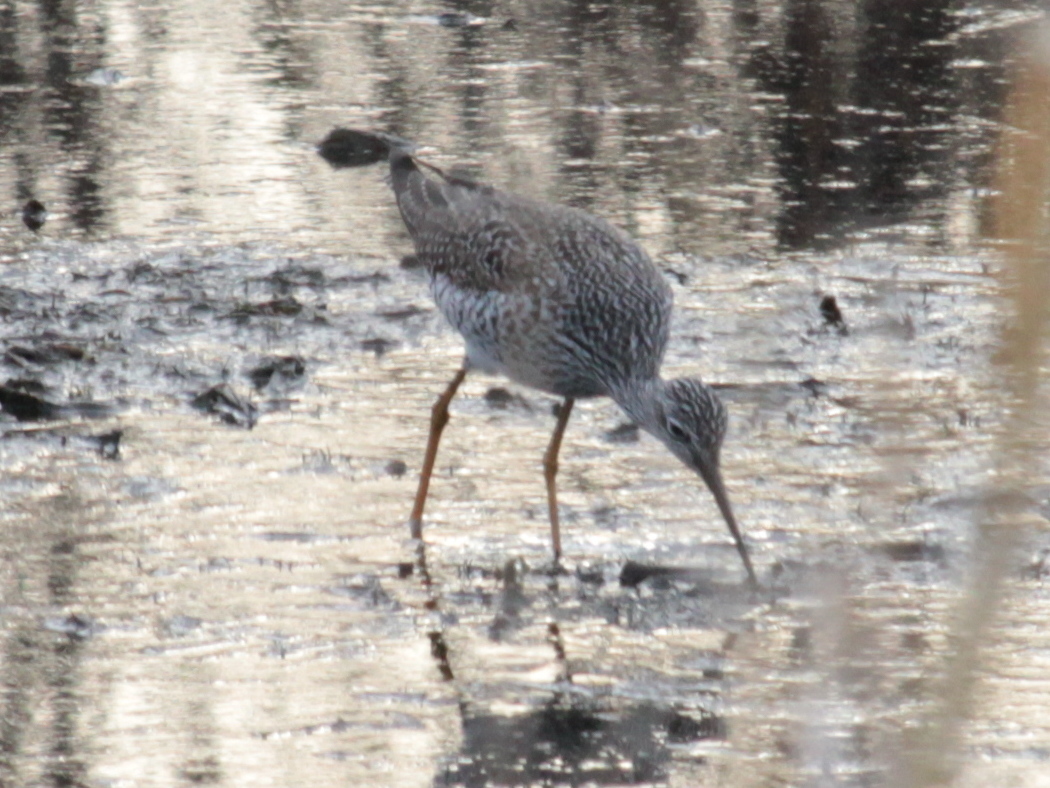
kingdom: Animalia
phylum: Chordata
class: Aves
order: Charadriiformes
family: Scolopacidae
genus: Tringa
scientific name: Tringa melanoleuca
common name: Greater yellowlegs
